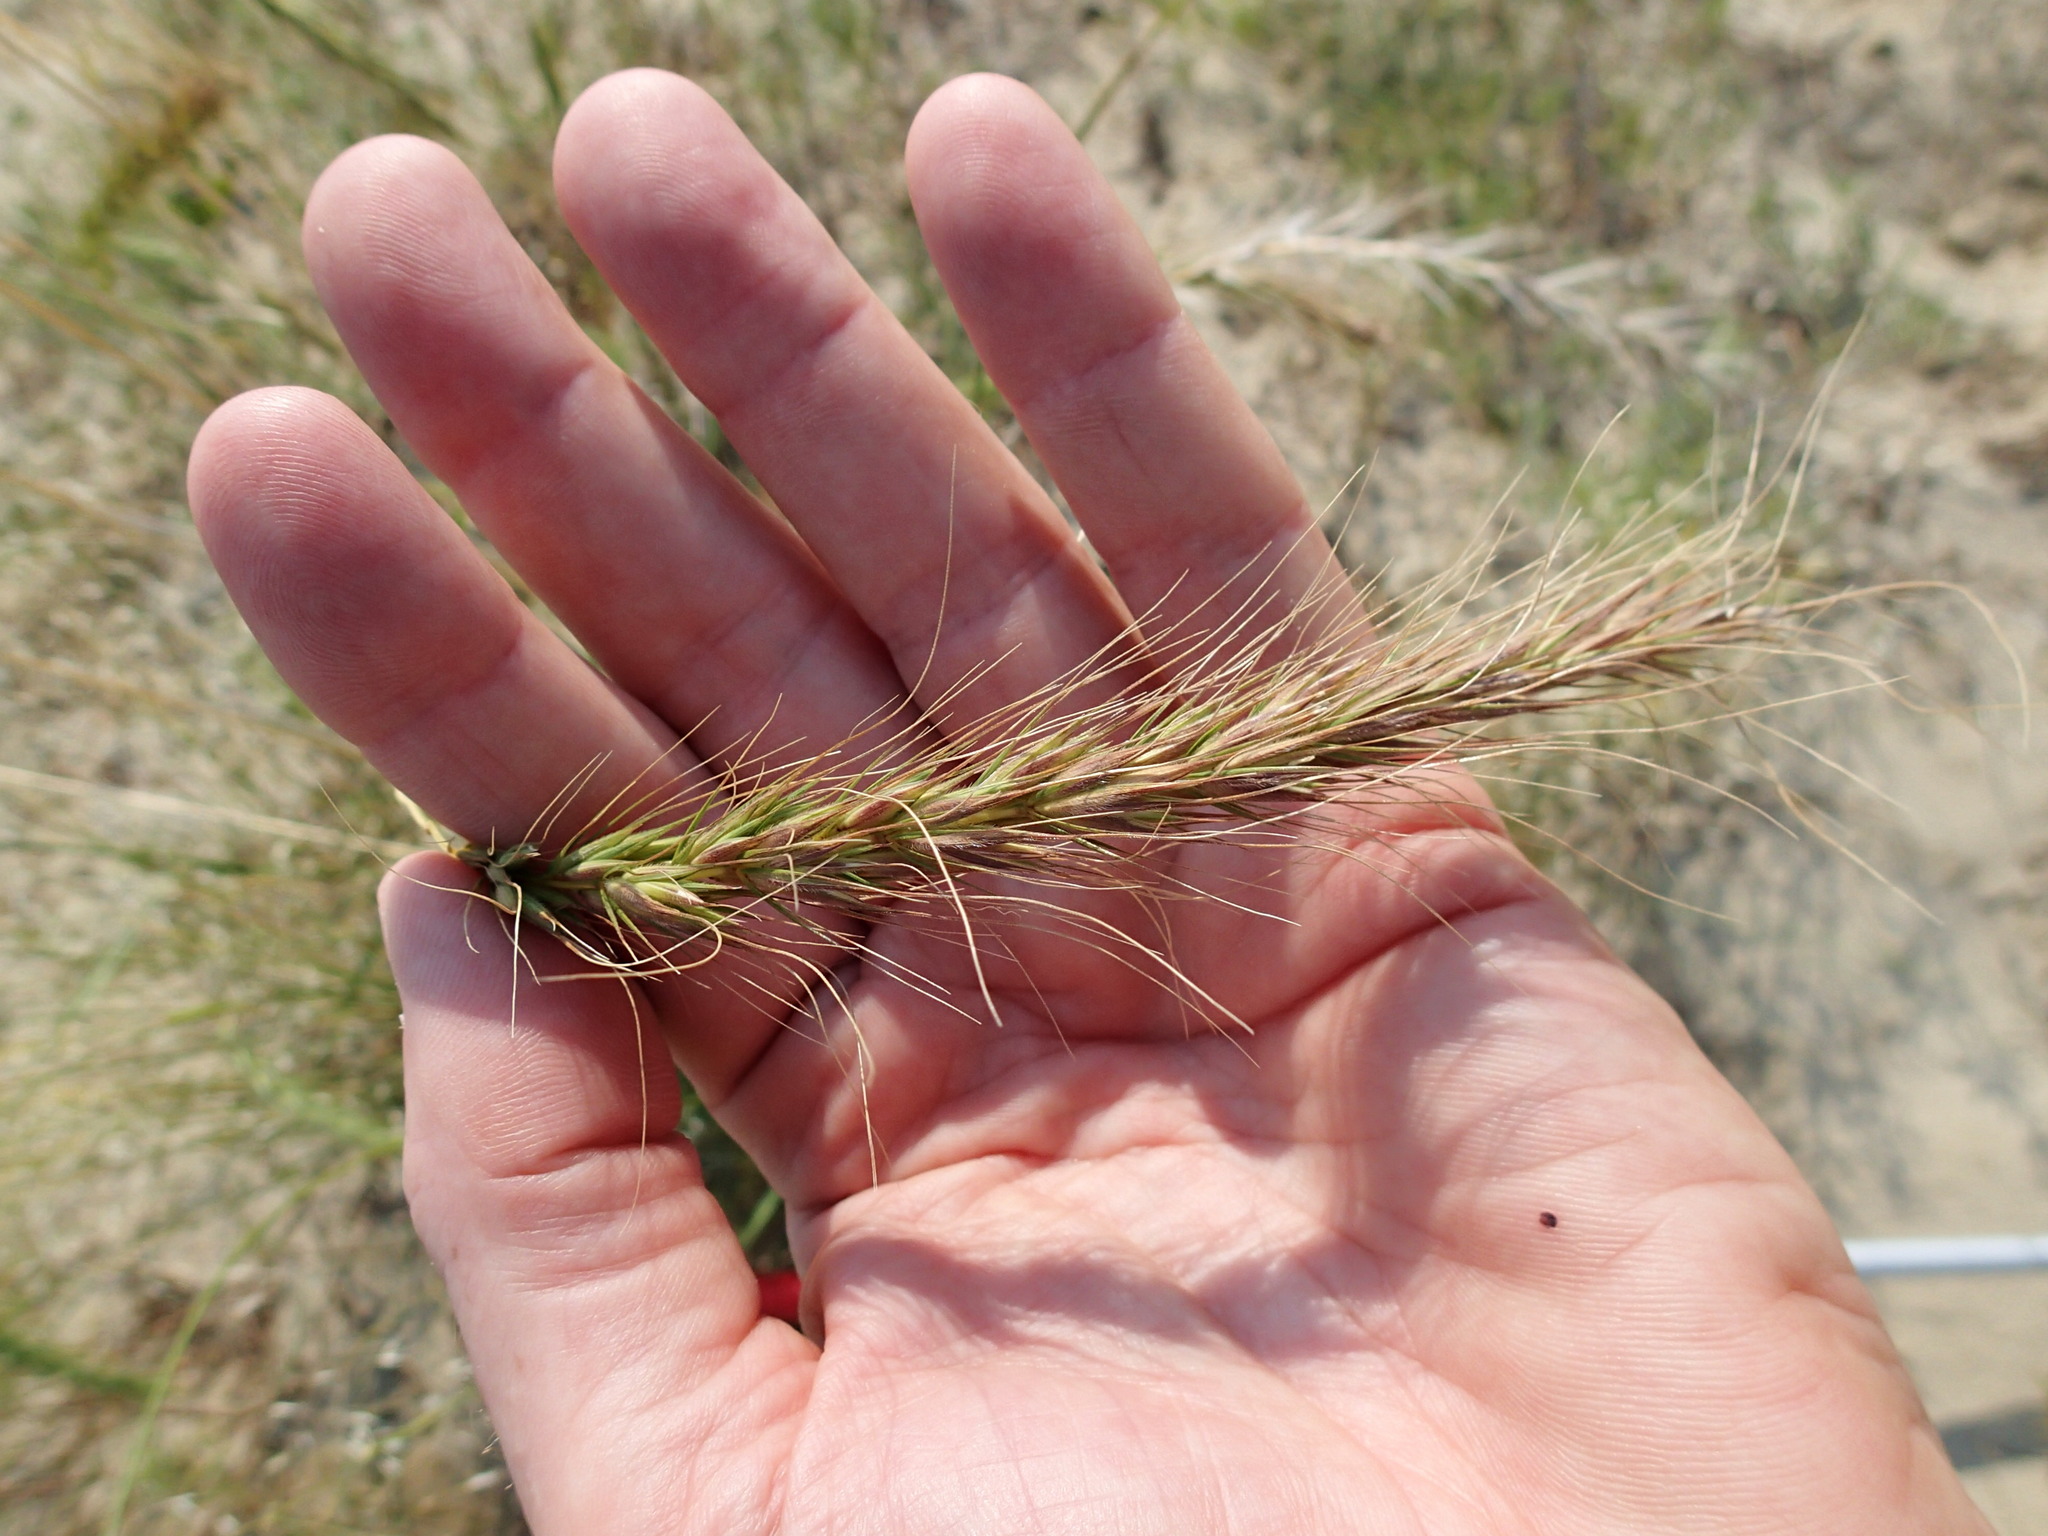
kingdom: Plantae
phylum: Tracheophyta
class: Liliopsida
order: Poales
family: Poaceae
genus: Elymus
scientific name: Elymus canadensis
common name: Canada wild rye
